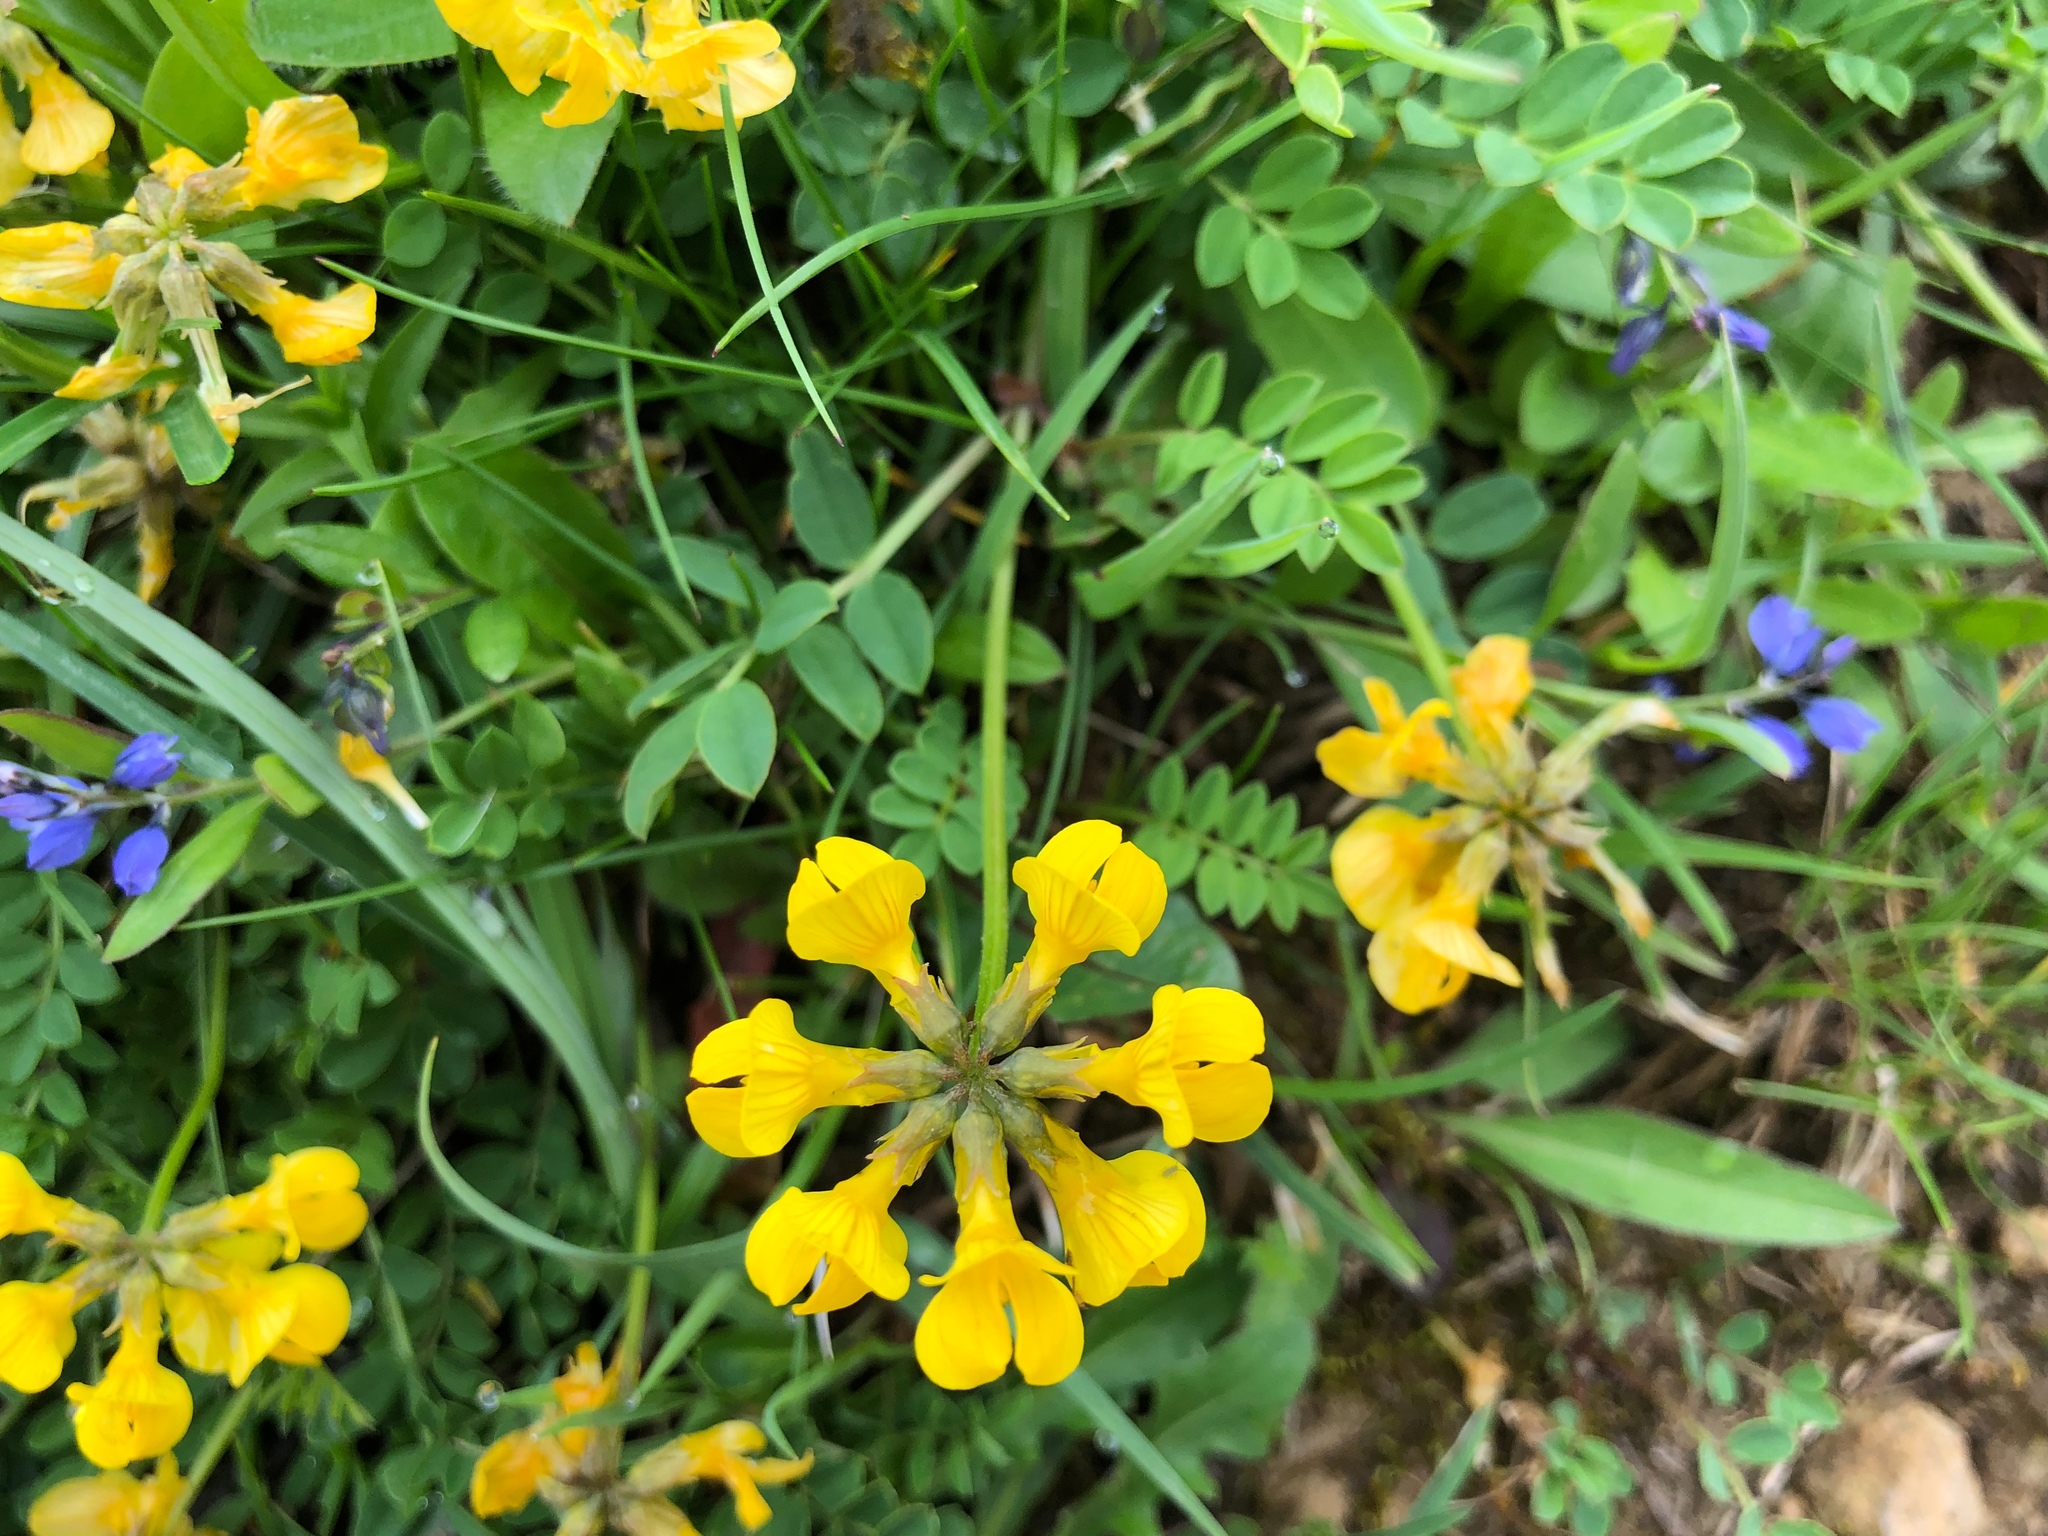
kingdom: Plantae
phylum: Tracheophyta
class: Magnoliopsida
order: Fabales
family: Fabaceae
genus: Hippocrepis
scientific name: Hippocrepis comosa
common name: Horseshoe vetch
